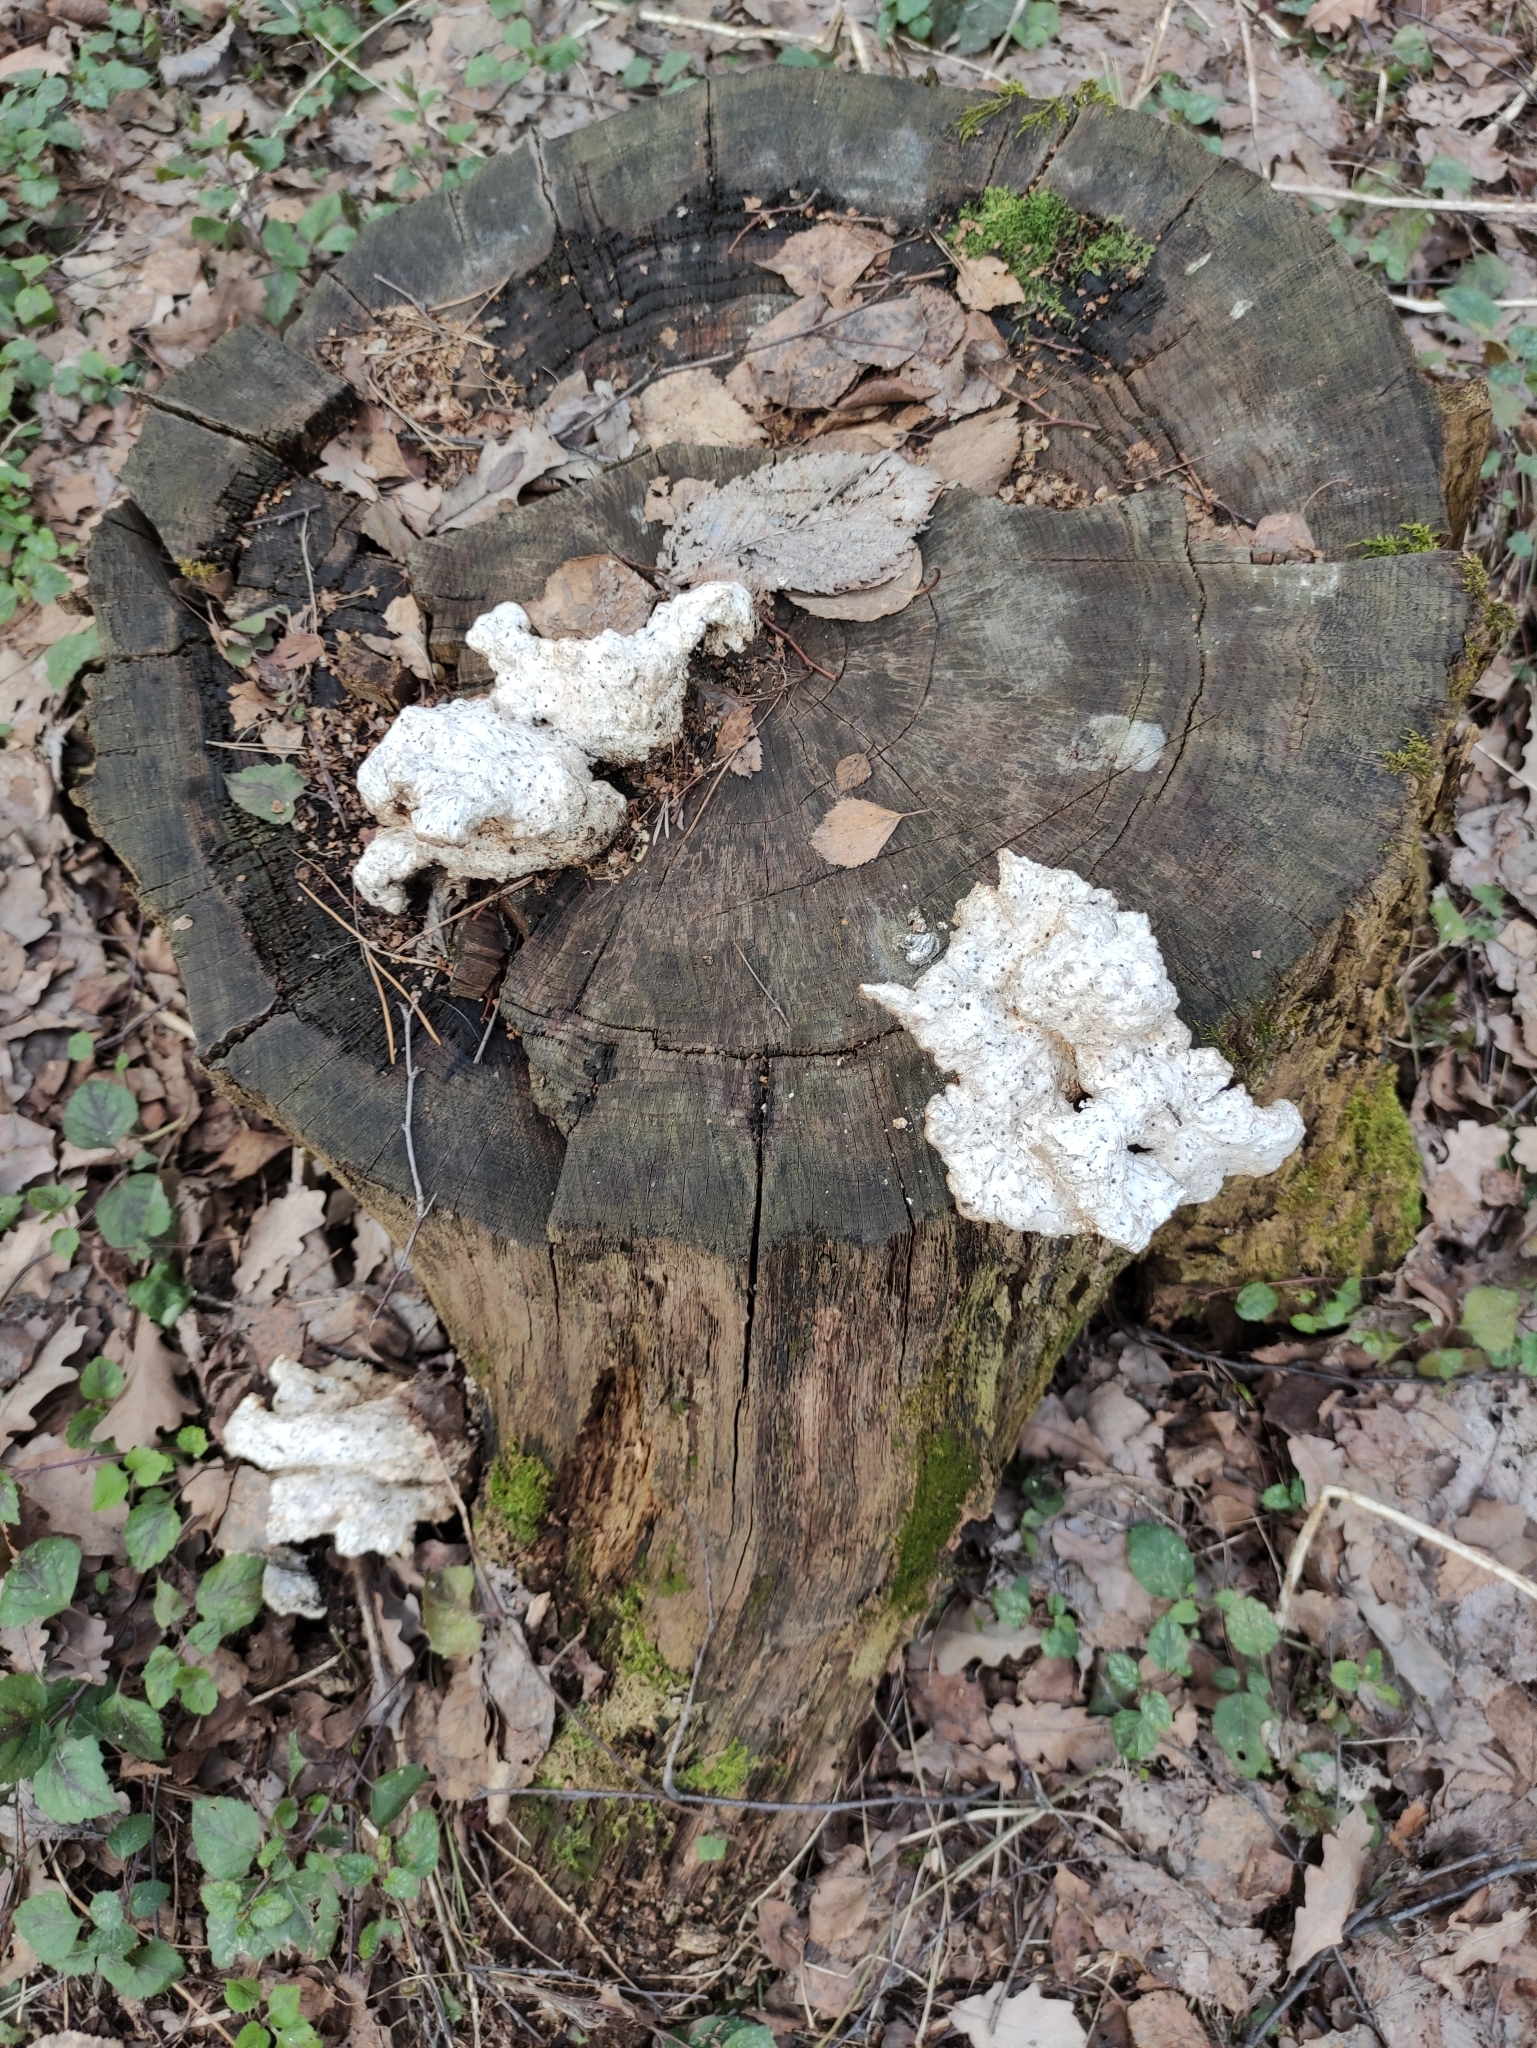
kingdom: Fungi
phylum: Basidiomycota
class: Agaricomycetes
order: Polyporales
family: Laetiporaceae
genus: Laetiporus
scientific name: Laetiporus sulphureus
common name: Chicken of the woods
